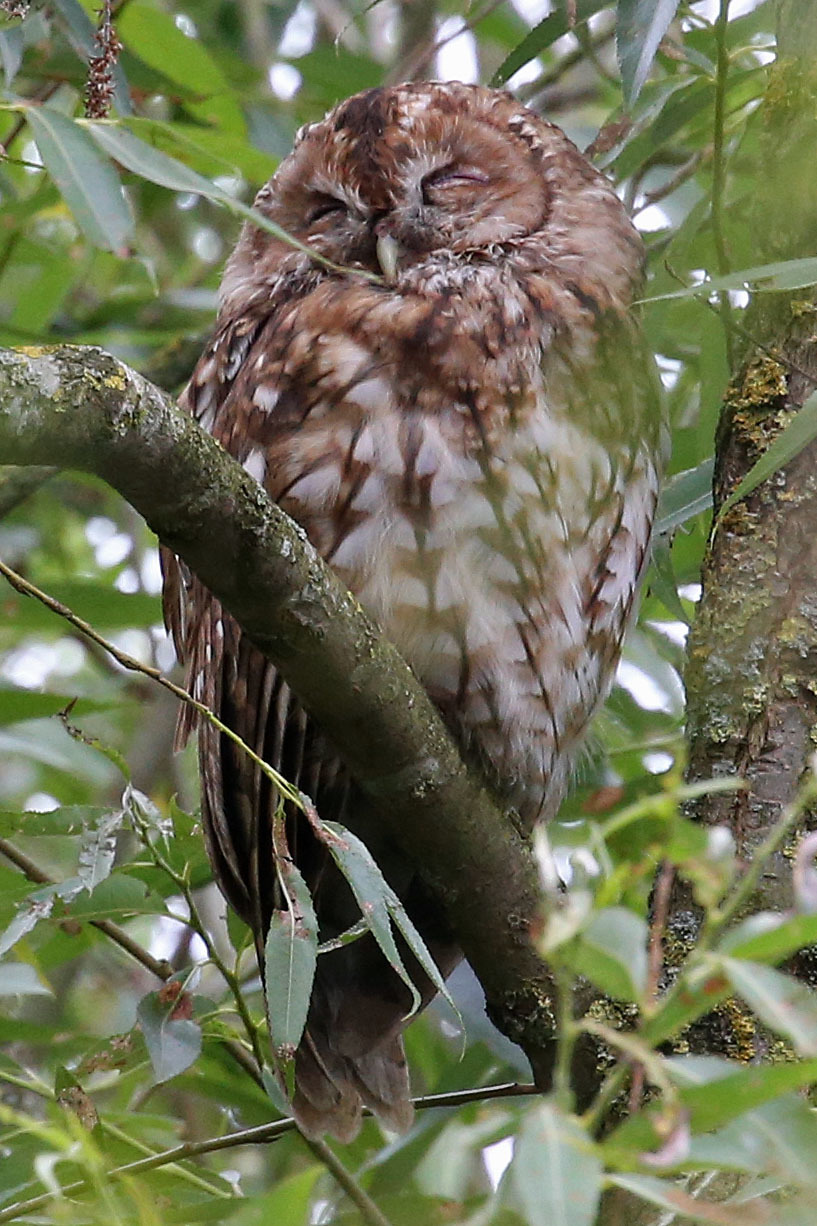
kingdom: Animalia
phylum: Chordata
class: Aves
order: Strigiformes
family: Strigidae
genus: Strix
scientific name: Strix aluco
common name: Tawny owl
